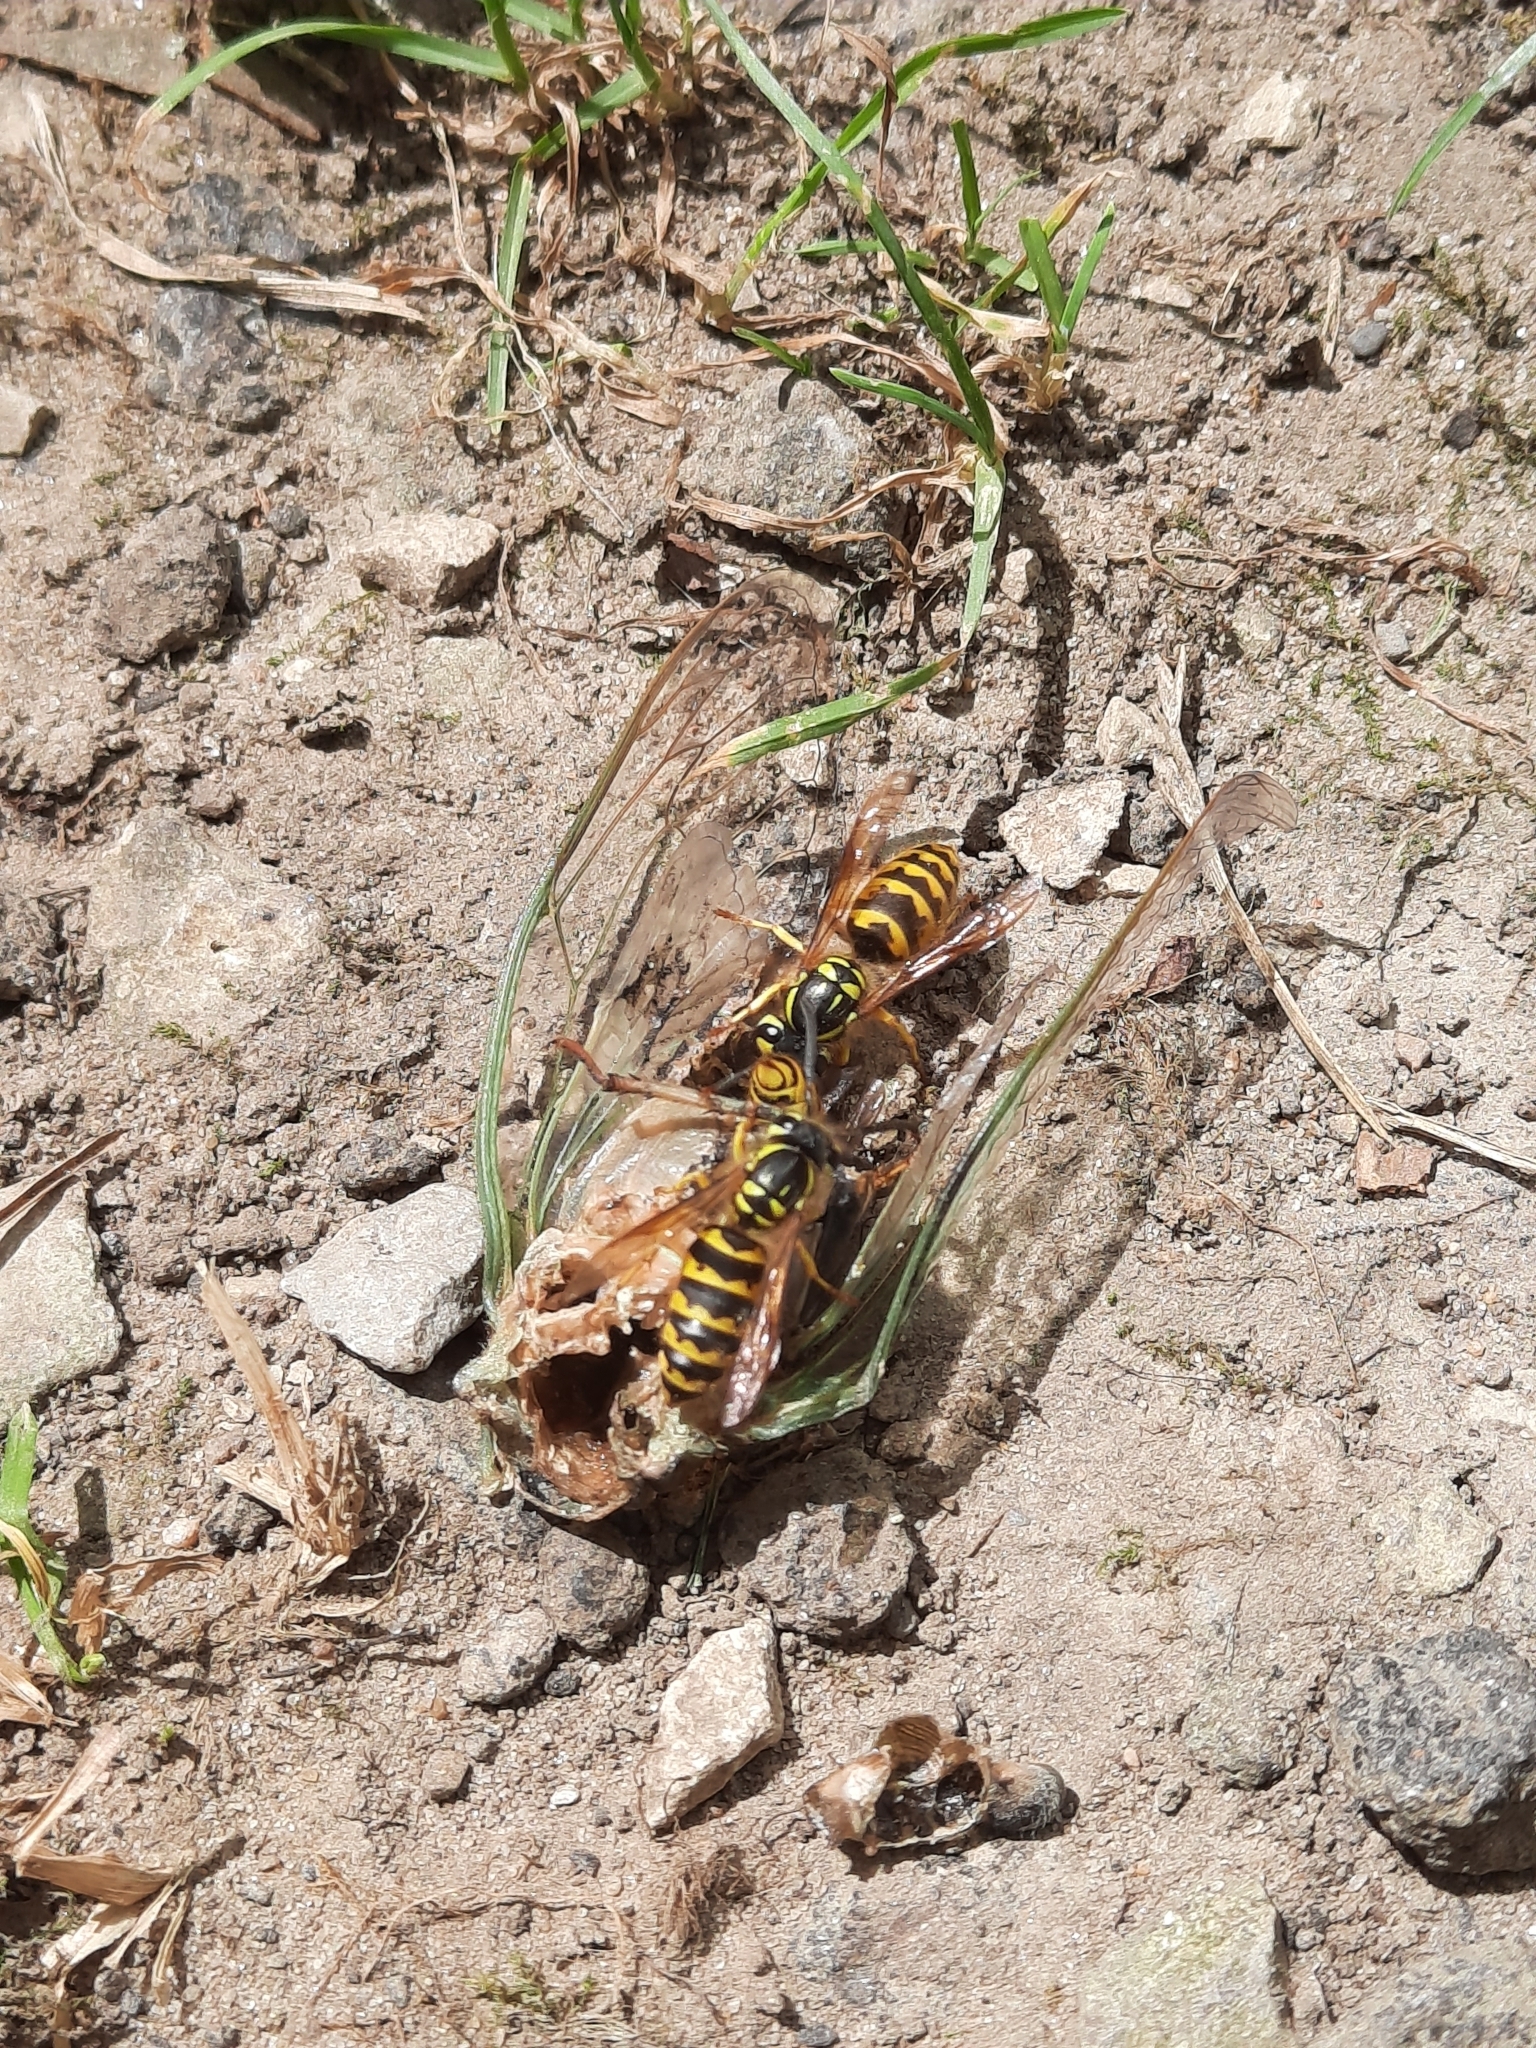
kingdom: Animalia
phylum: Arthropoda
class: Insecta
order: Hymenoptera
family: Vespidae
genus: Vespula
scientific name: Vespula flavopilosa
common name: Downy yellowjacket
